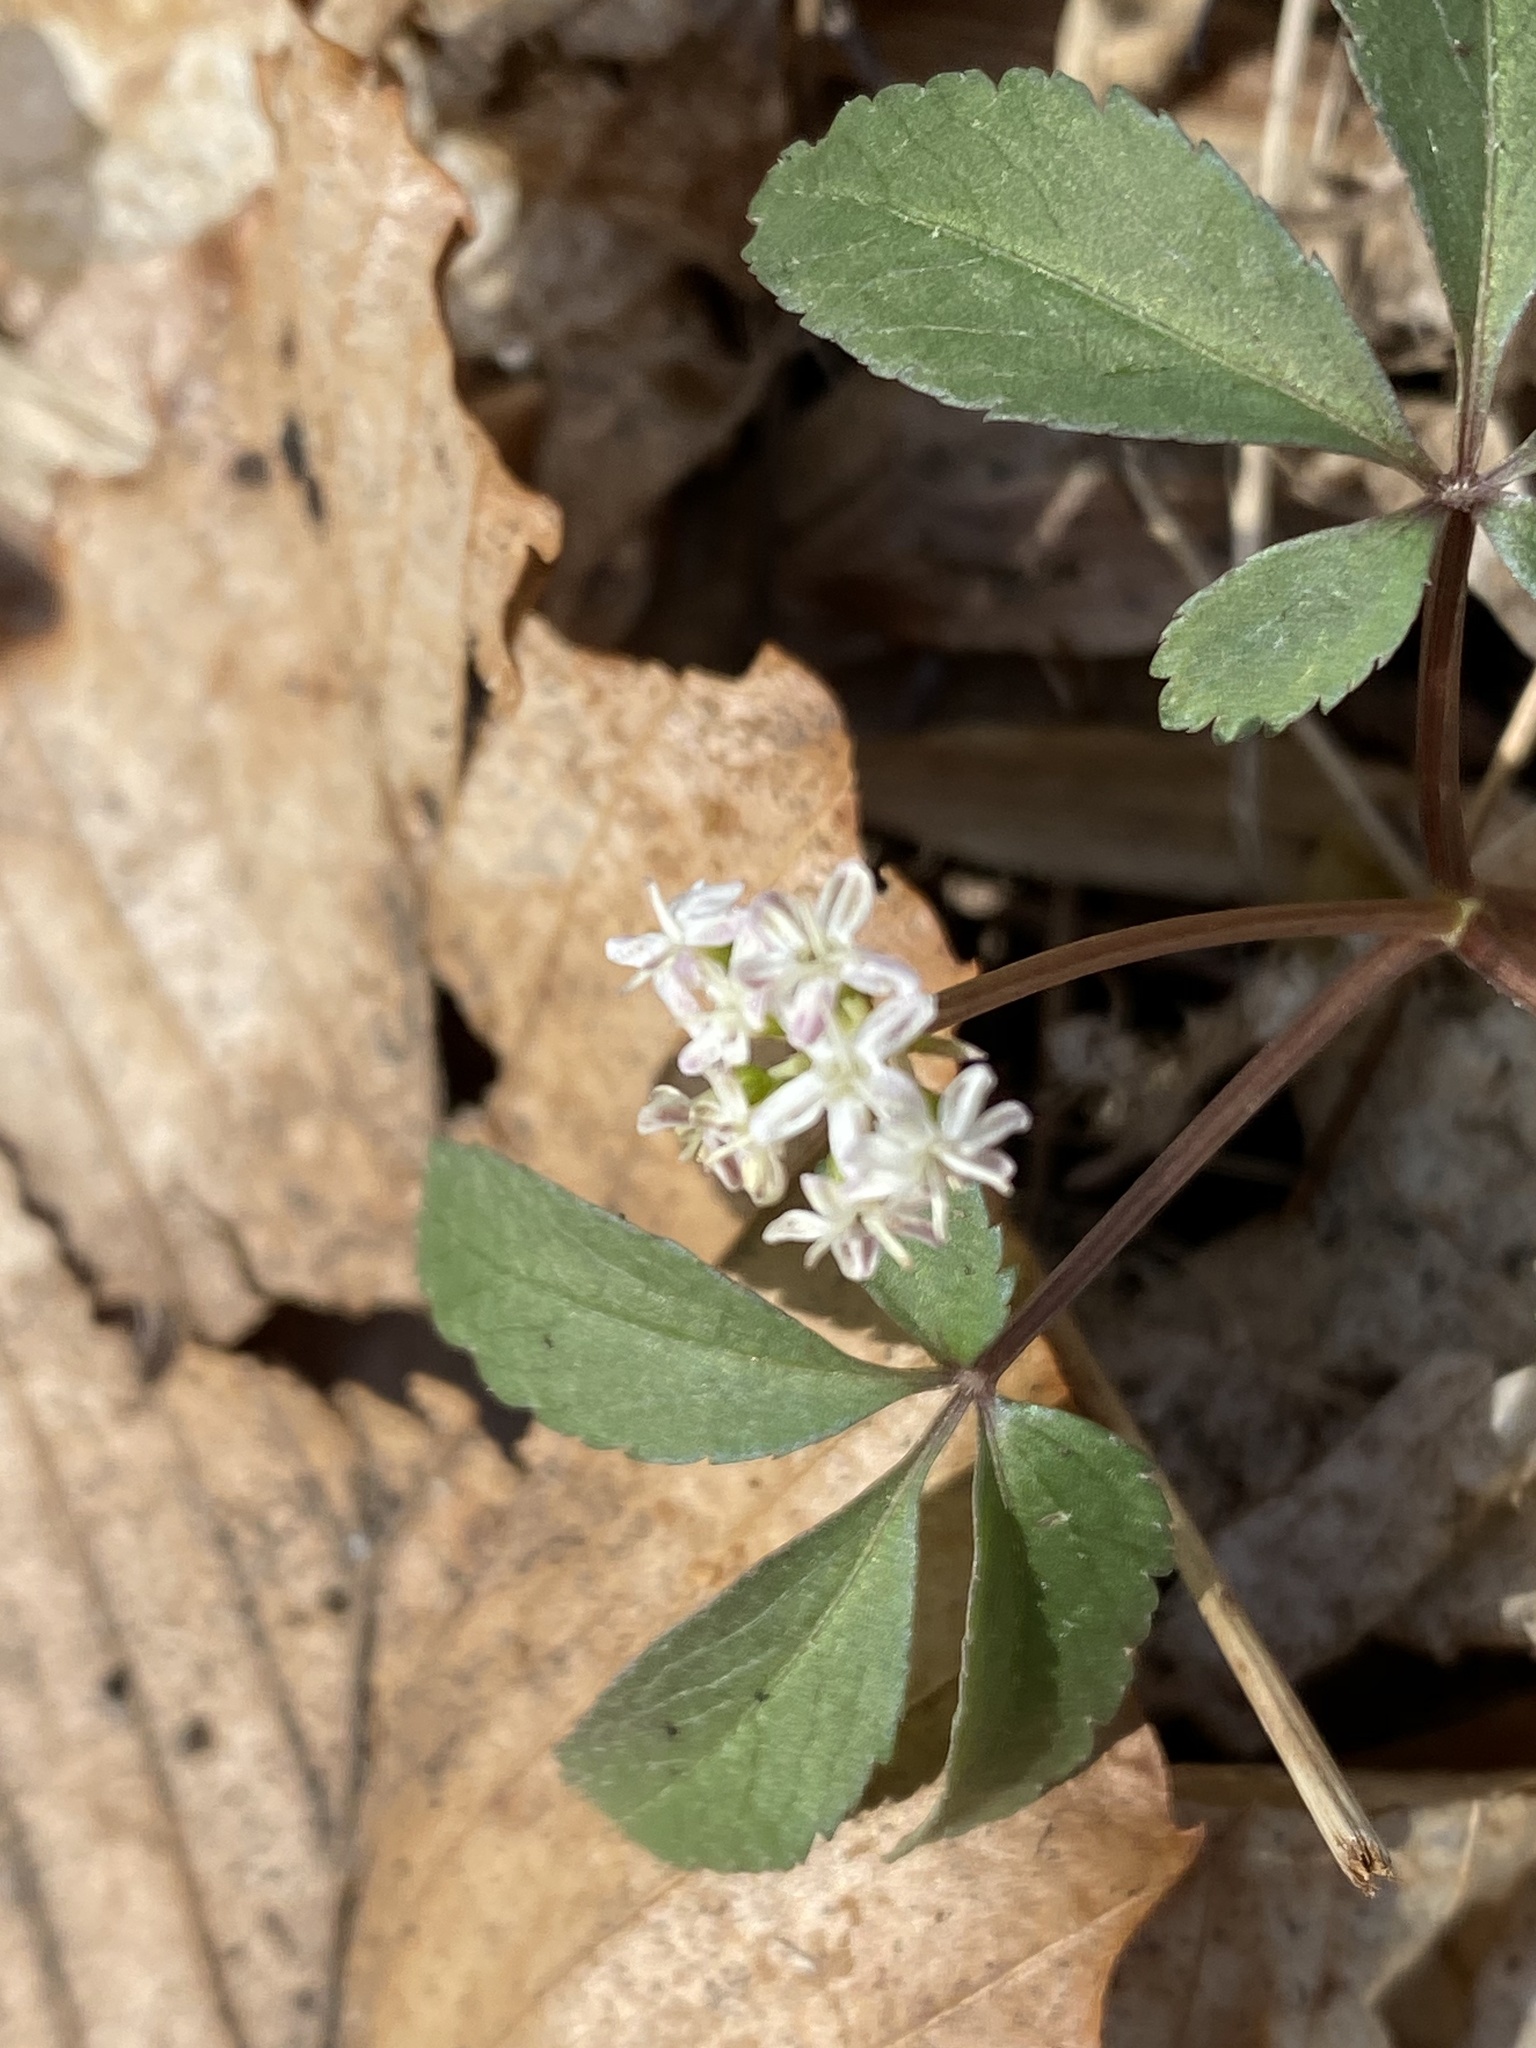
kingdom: Plantae
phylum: Tracheophyta
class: Magnoliopsida
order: Apiales
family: Araliaceae
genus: Panax
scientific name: Panax trifolius
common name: Dwarf ginseng
